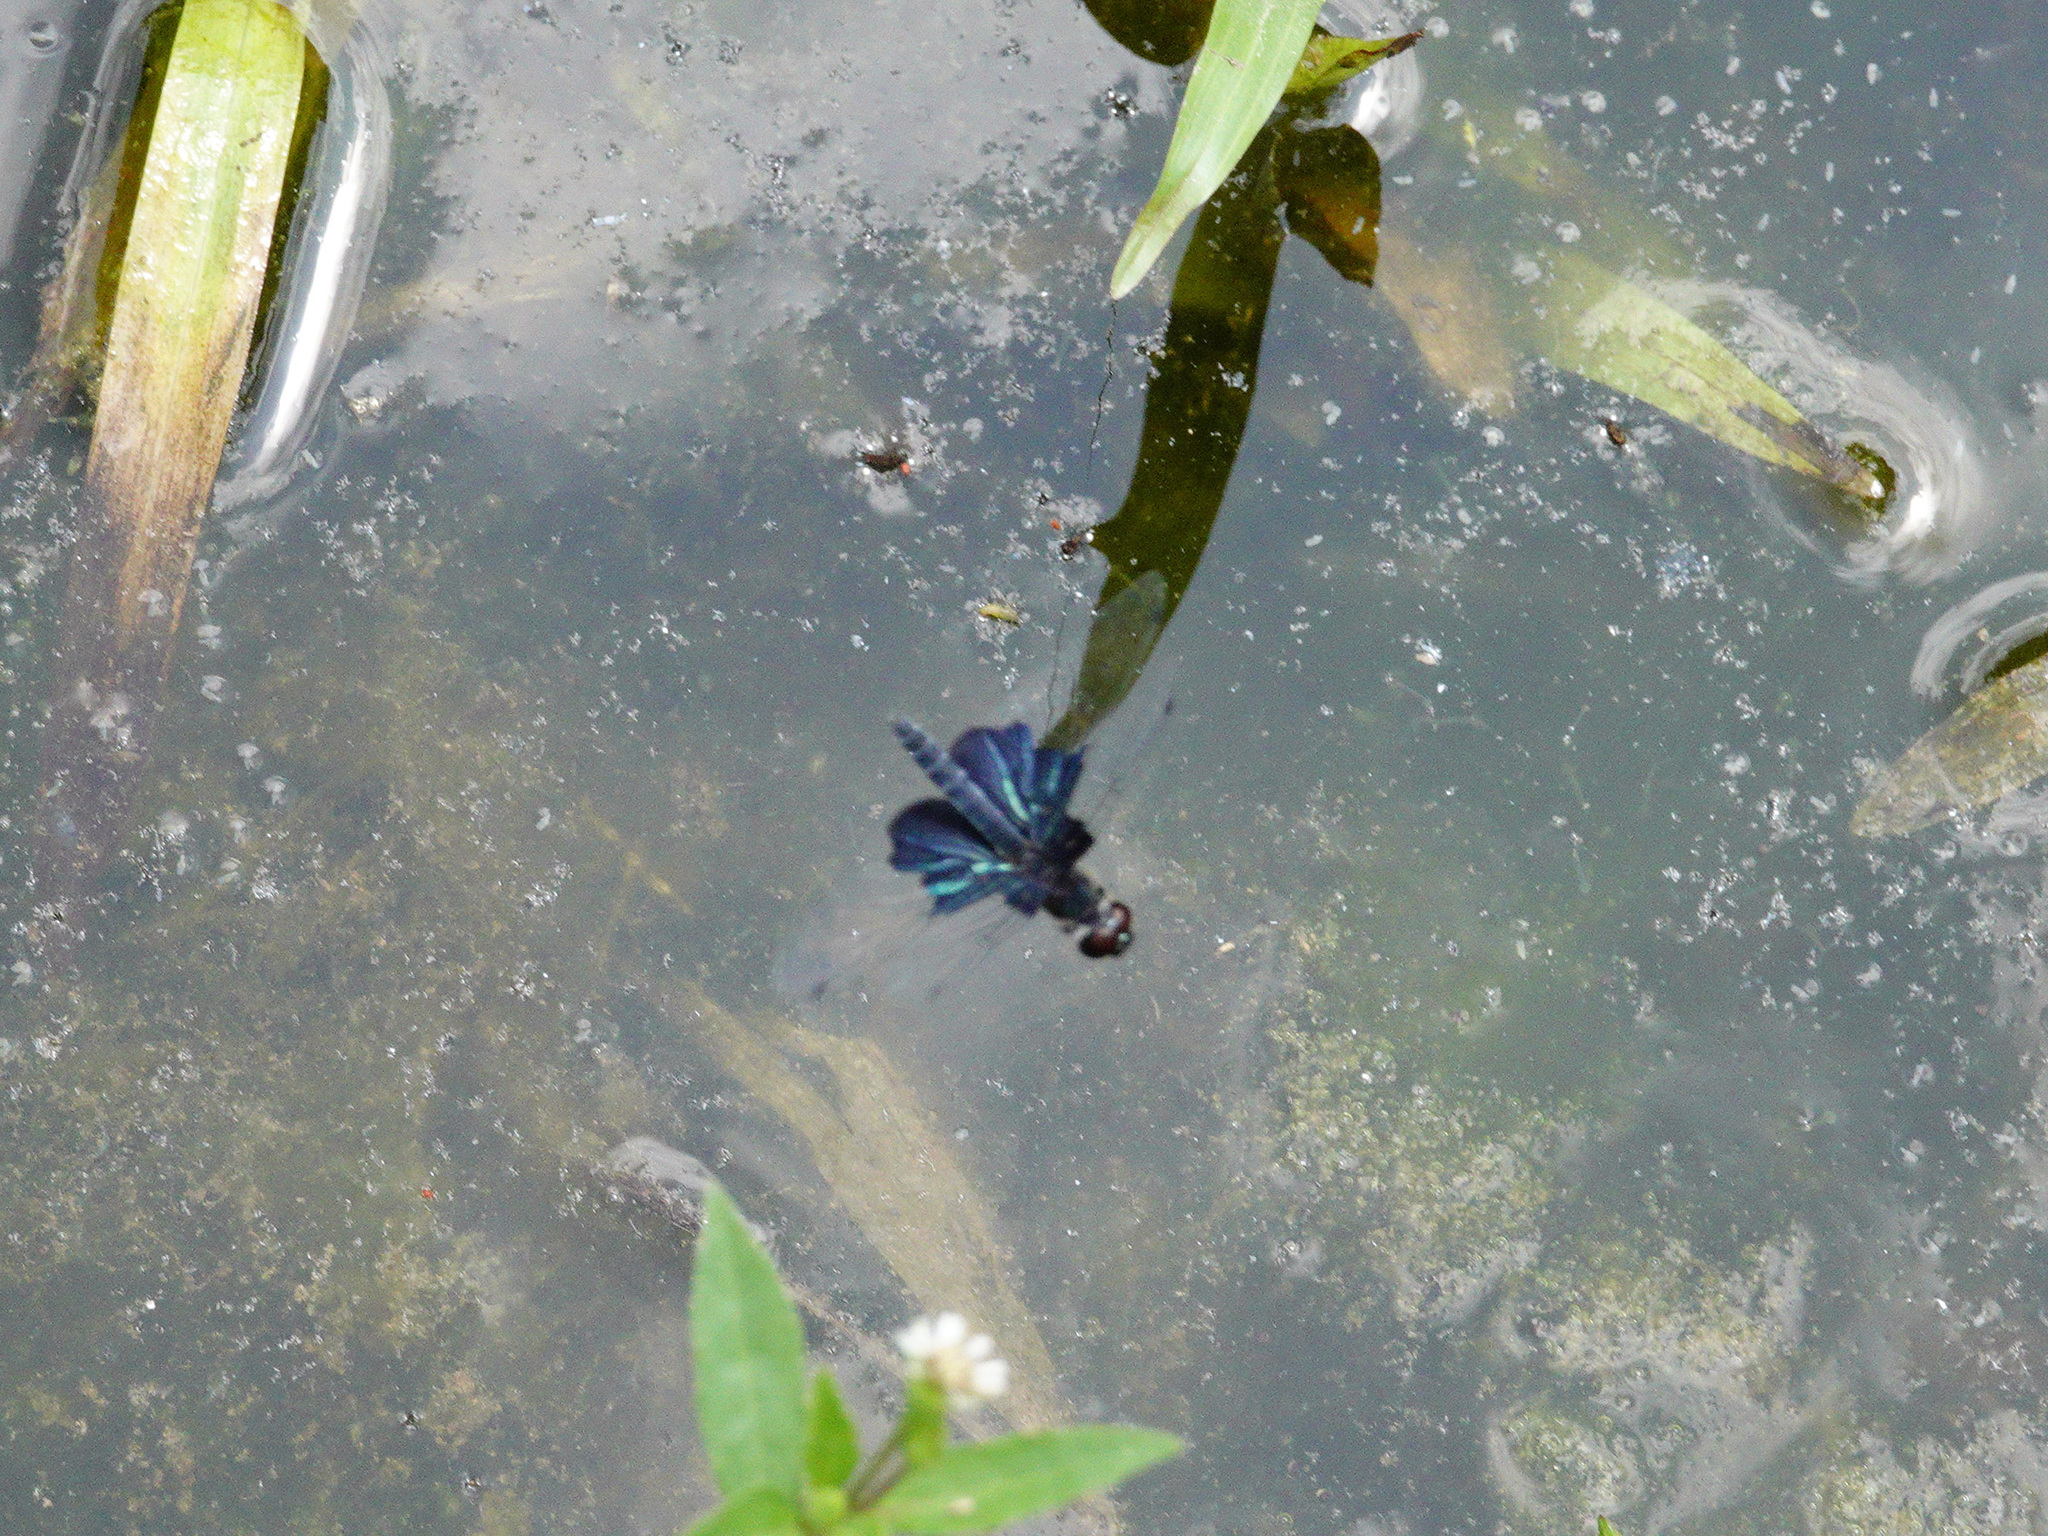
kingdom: Animalia
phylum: Arthropoda
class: Insecta
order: Odonata
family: Libellulidae
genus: Rhyothemis
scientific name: Rhyothemis triangularis
